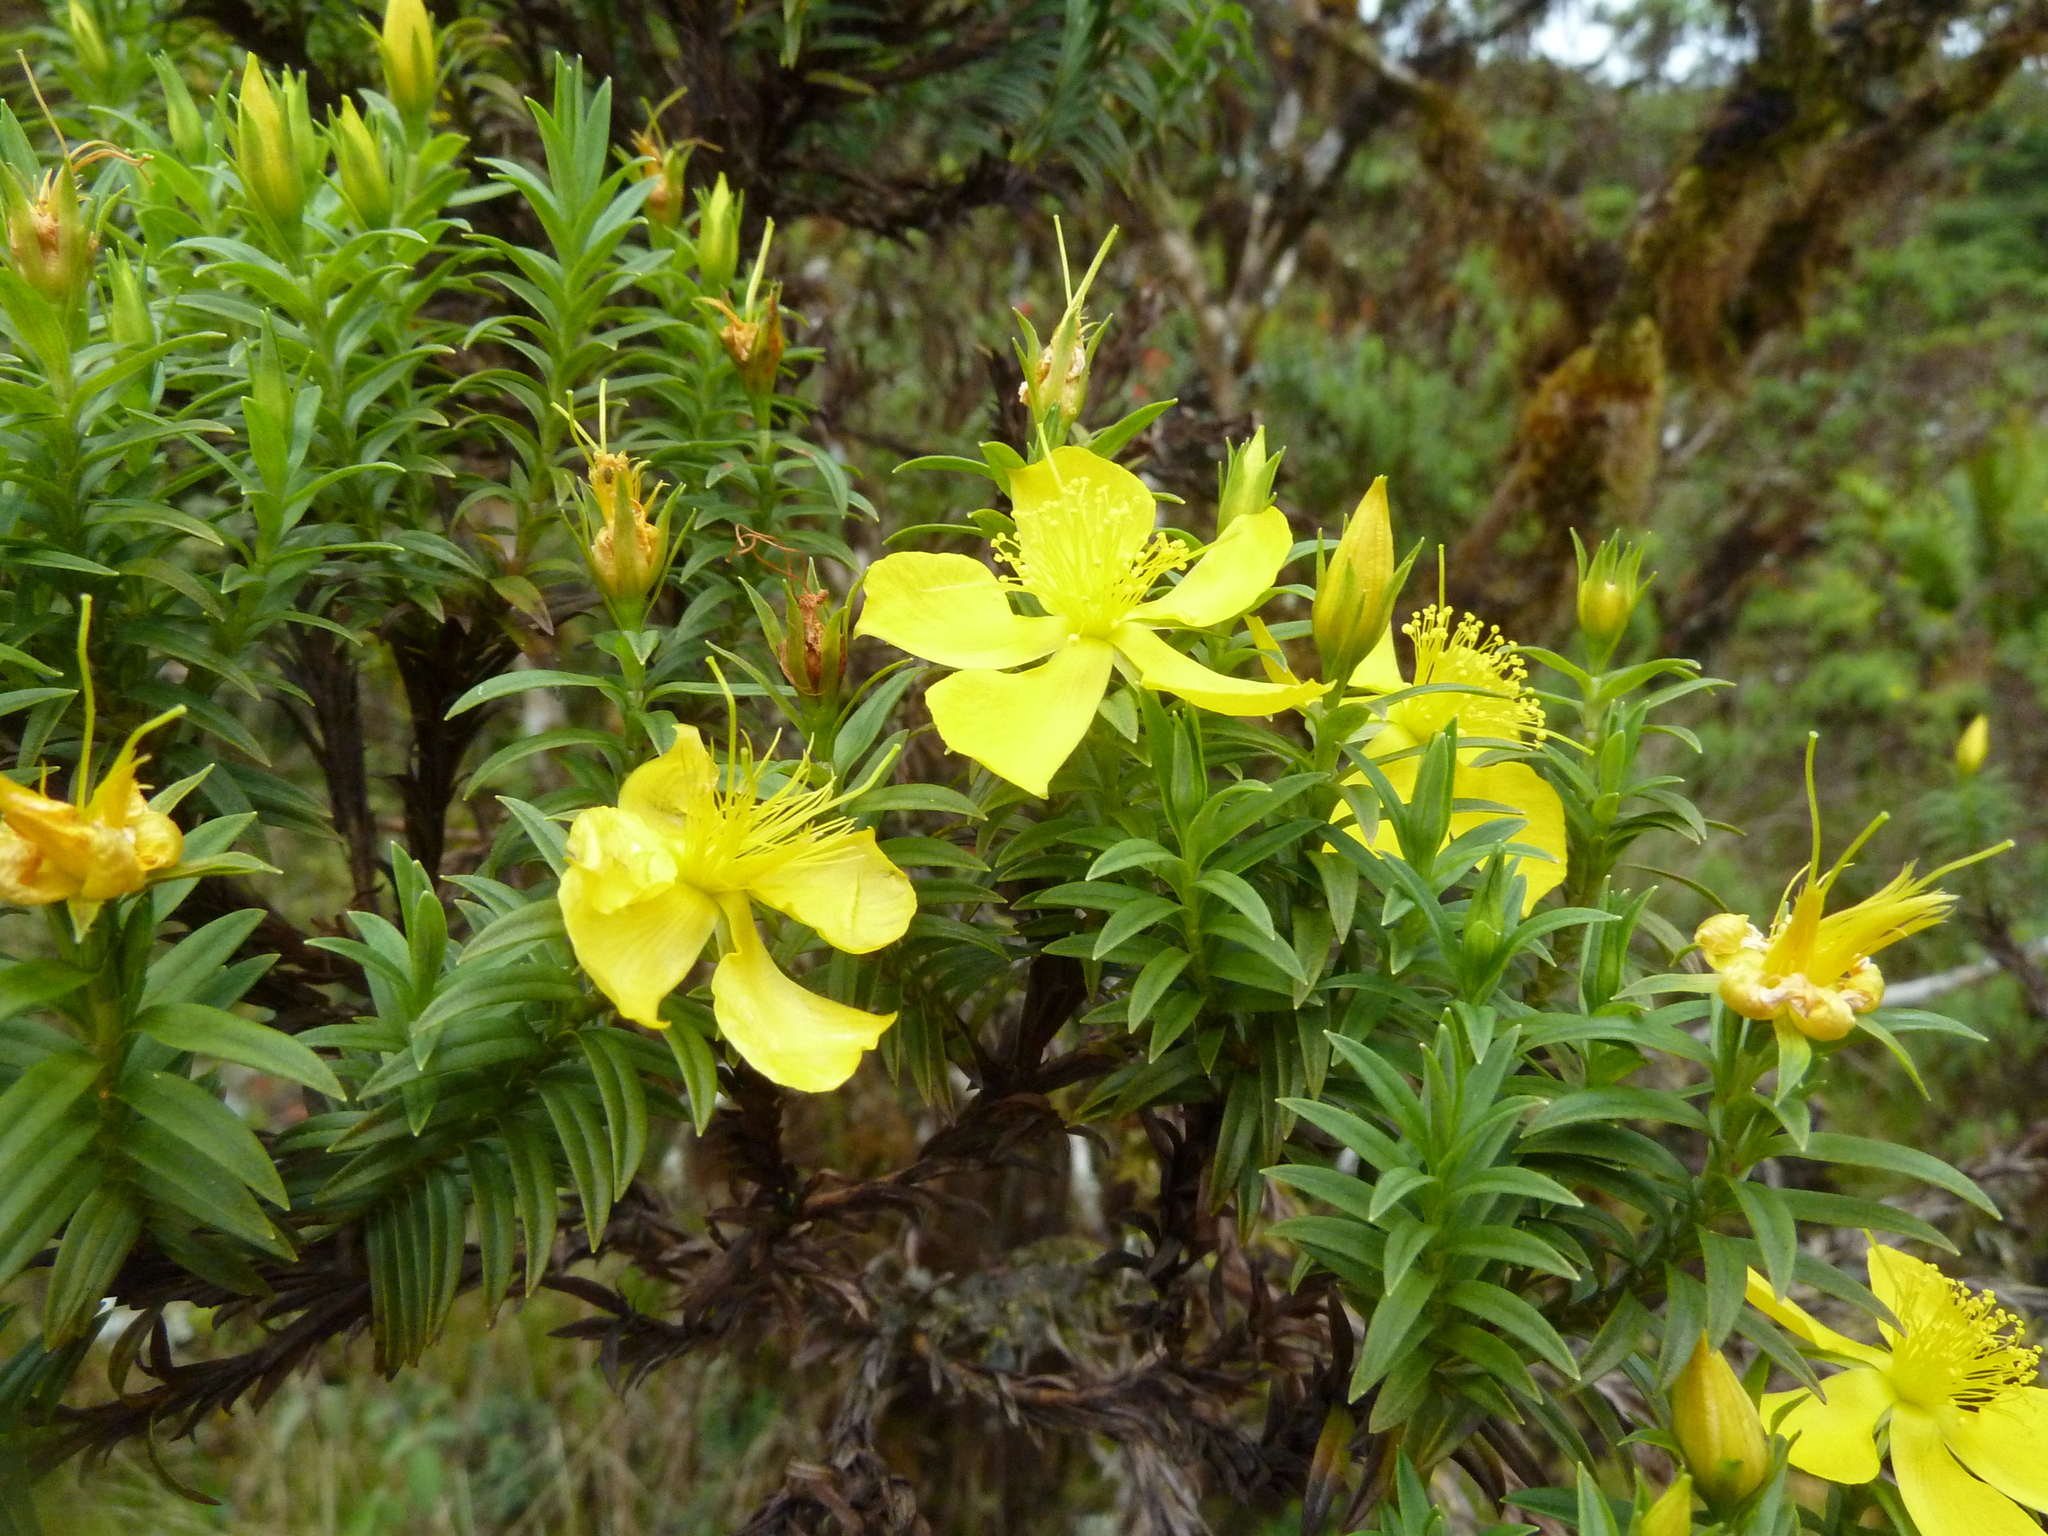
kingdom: Plantae
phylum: Tracheophyta
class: Magnoliopsida
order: Malpighiales
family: Hypericaceae
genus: Hypericum
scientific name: Hypericum irazuense
